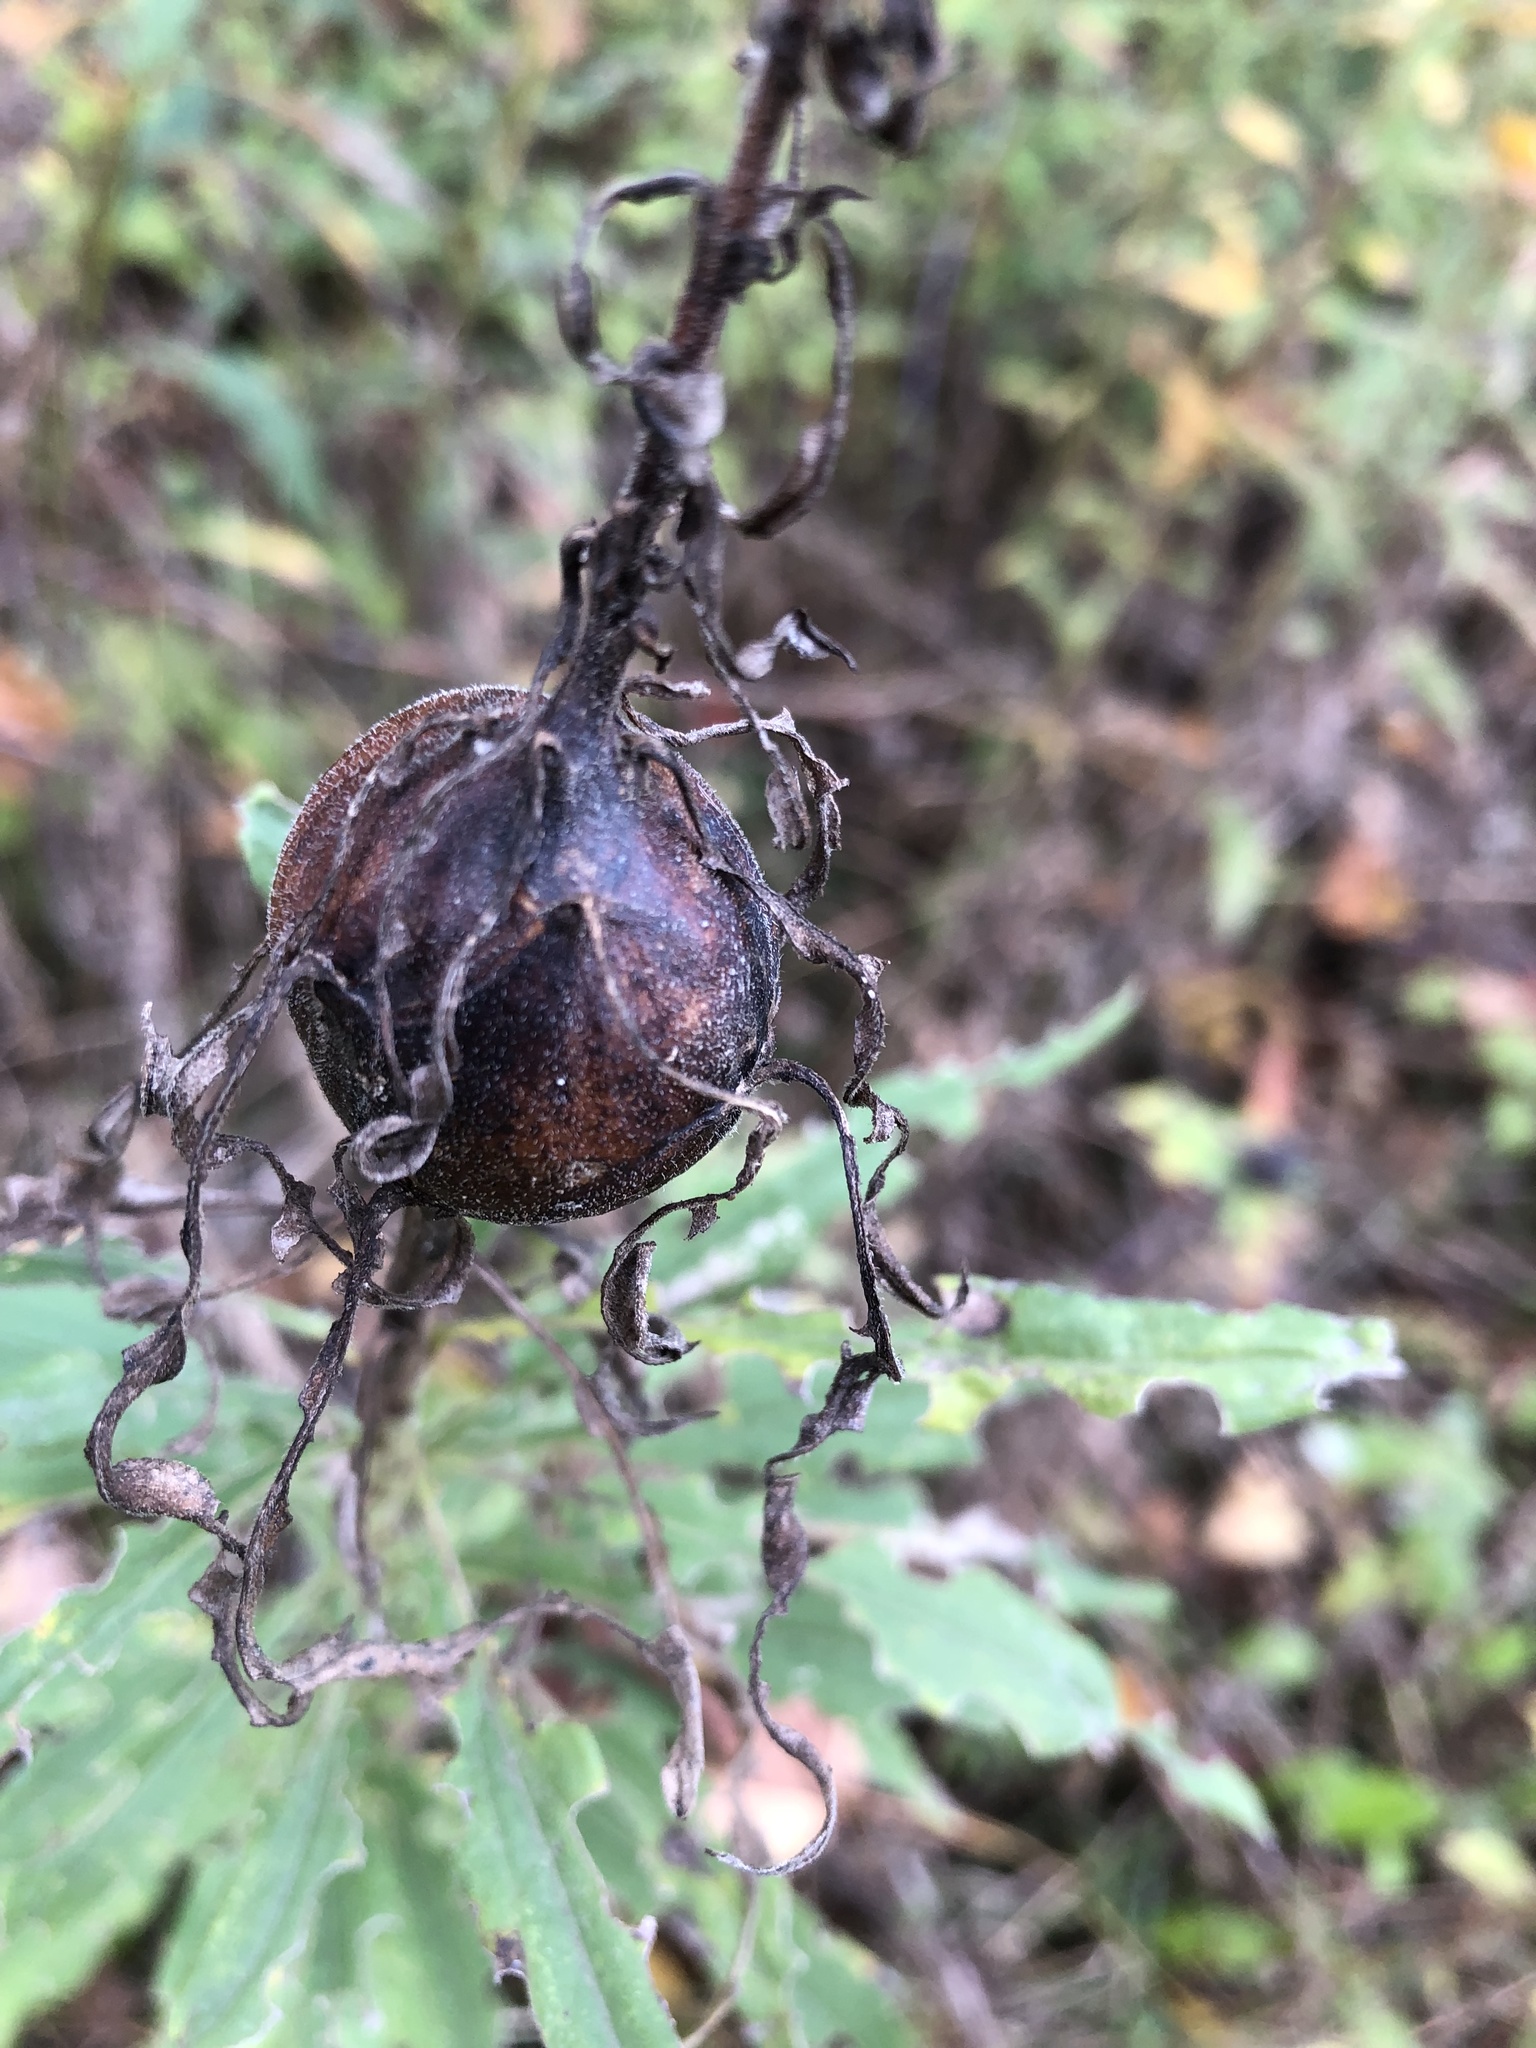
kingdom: Animalia
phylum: Arthropoda
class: Insecta
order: Diptera
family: Tephritidae
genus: Eurosta
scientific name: Eurosta solidaginis
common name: Goldenrod gall fly
